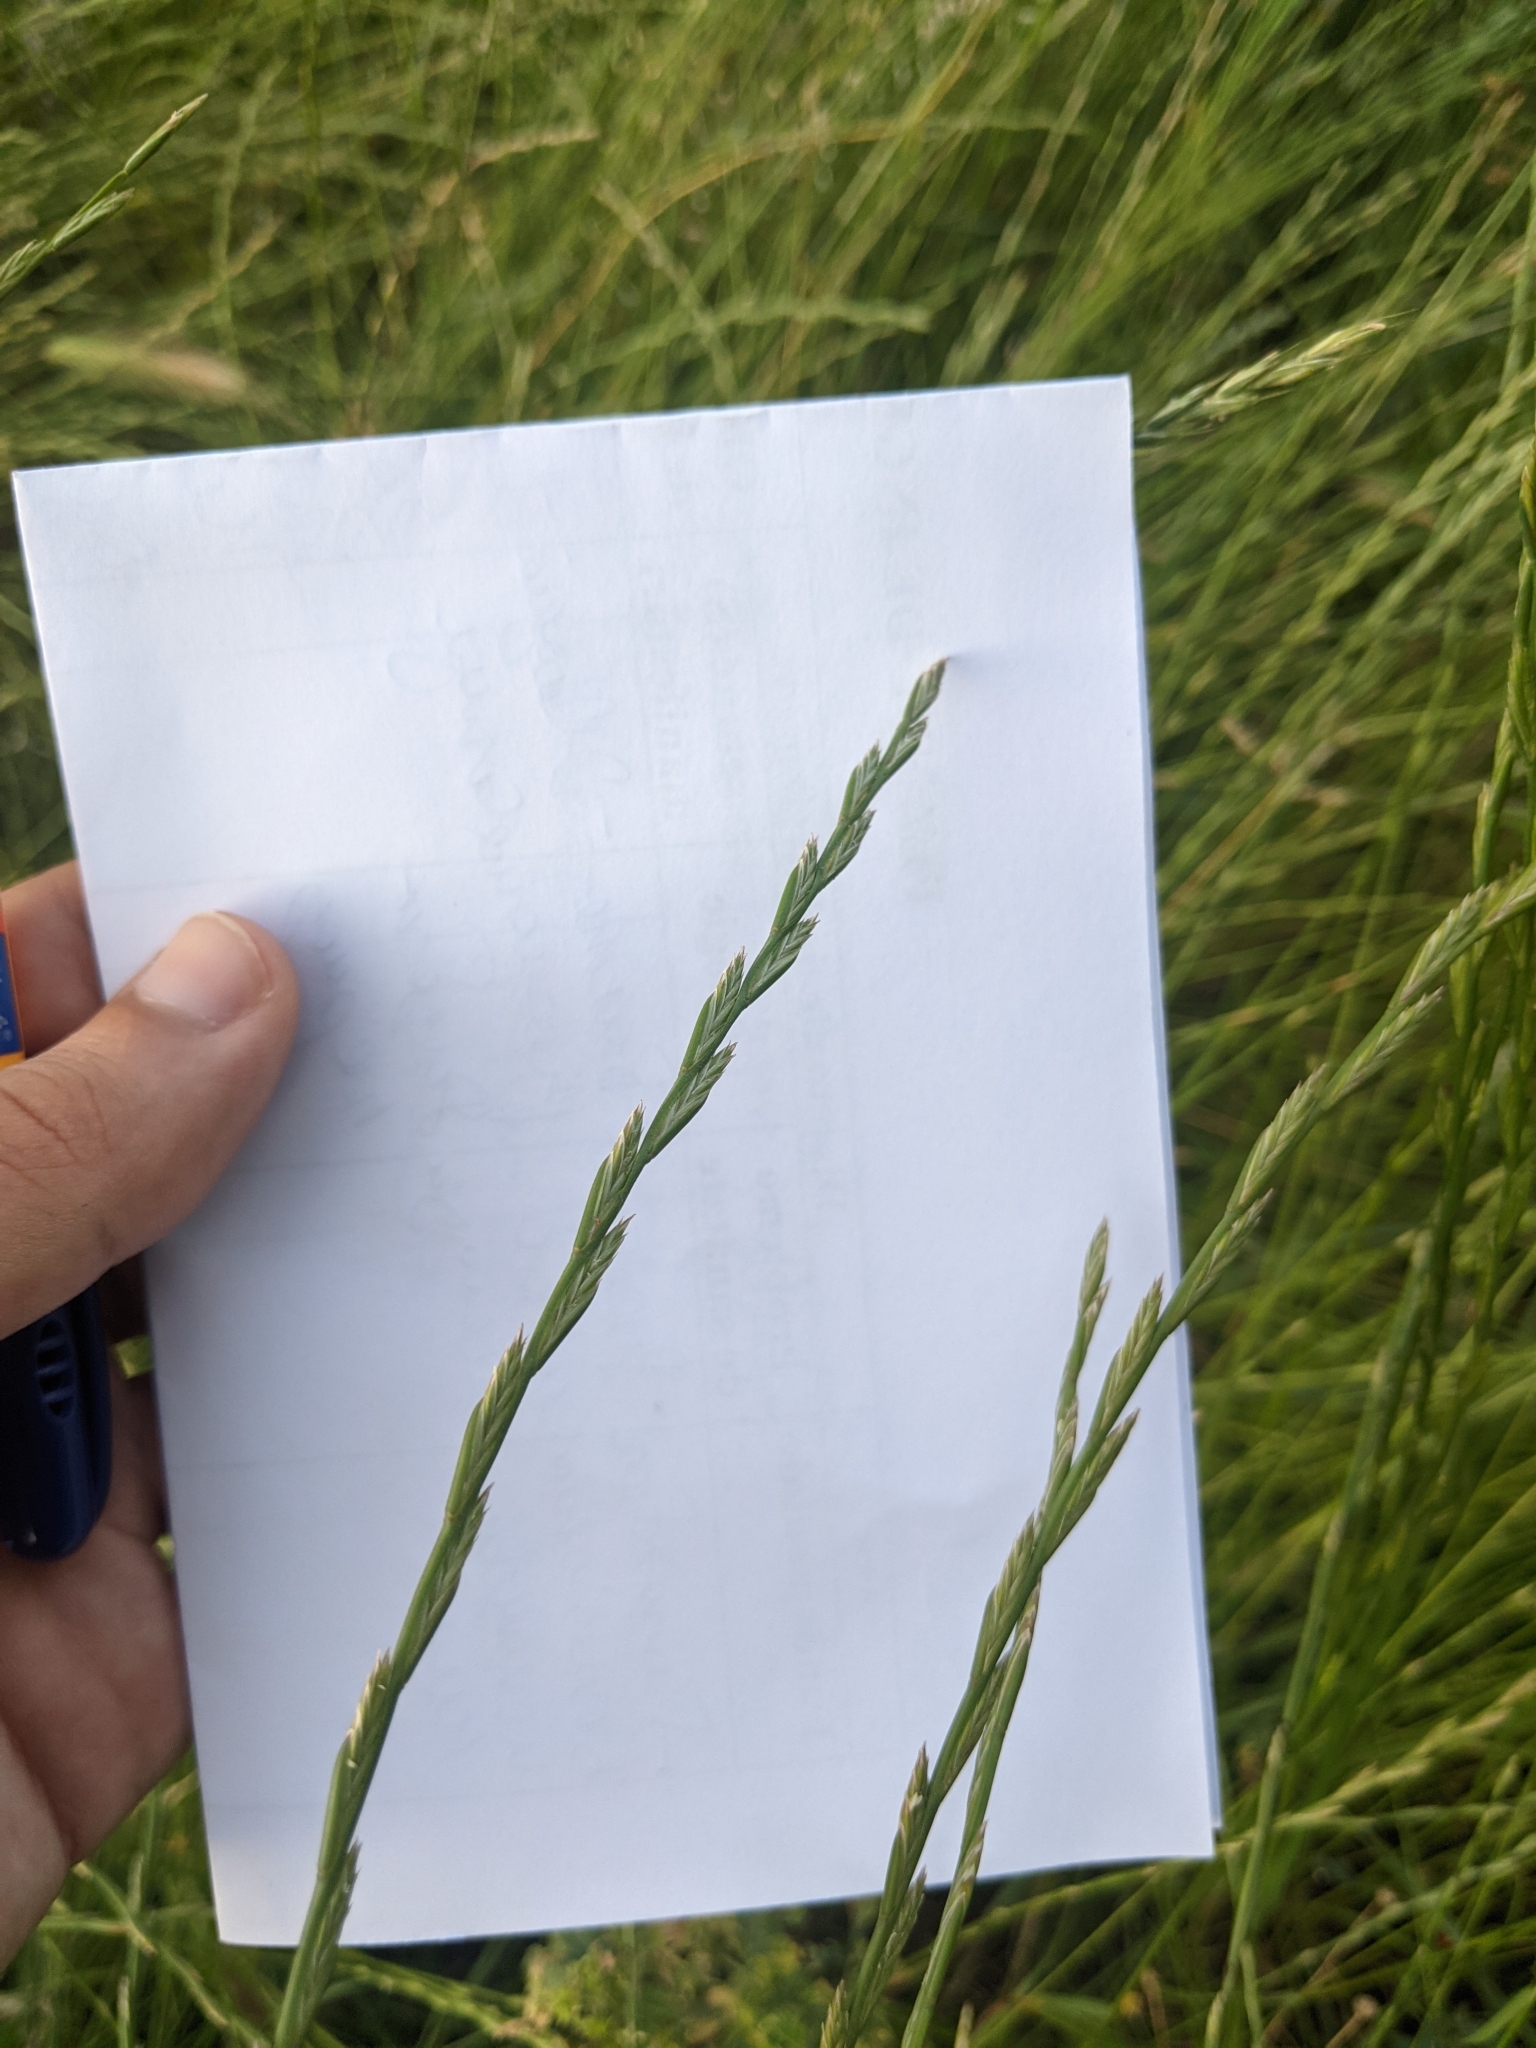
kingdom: Plantae
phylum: Tracheophyta
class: Liliopsida
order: Poales
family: Poaceae
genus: Lolium
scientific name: Lolium perenne
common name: Perennial ryegrass
